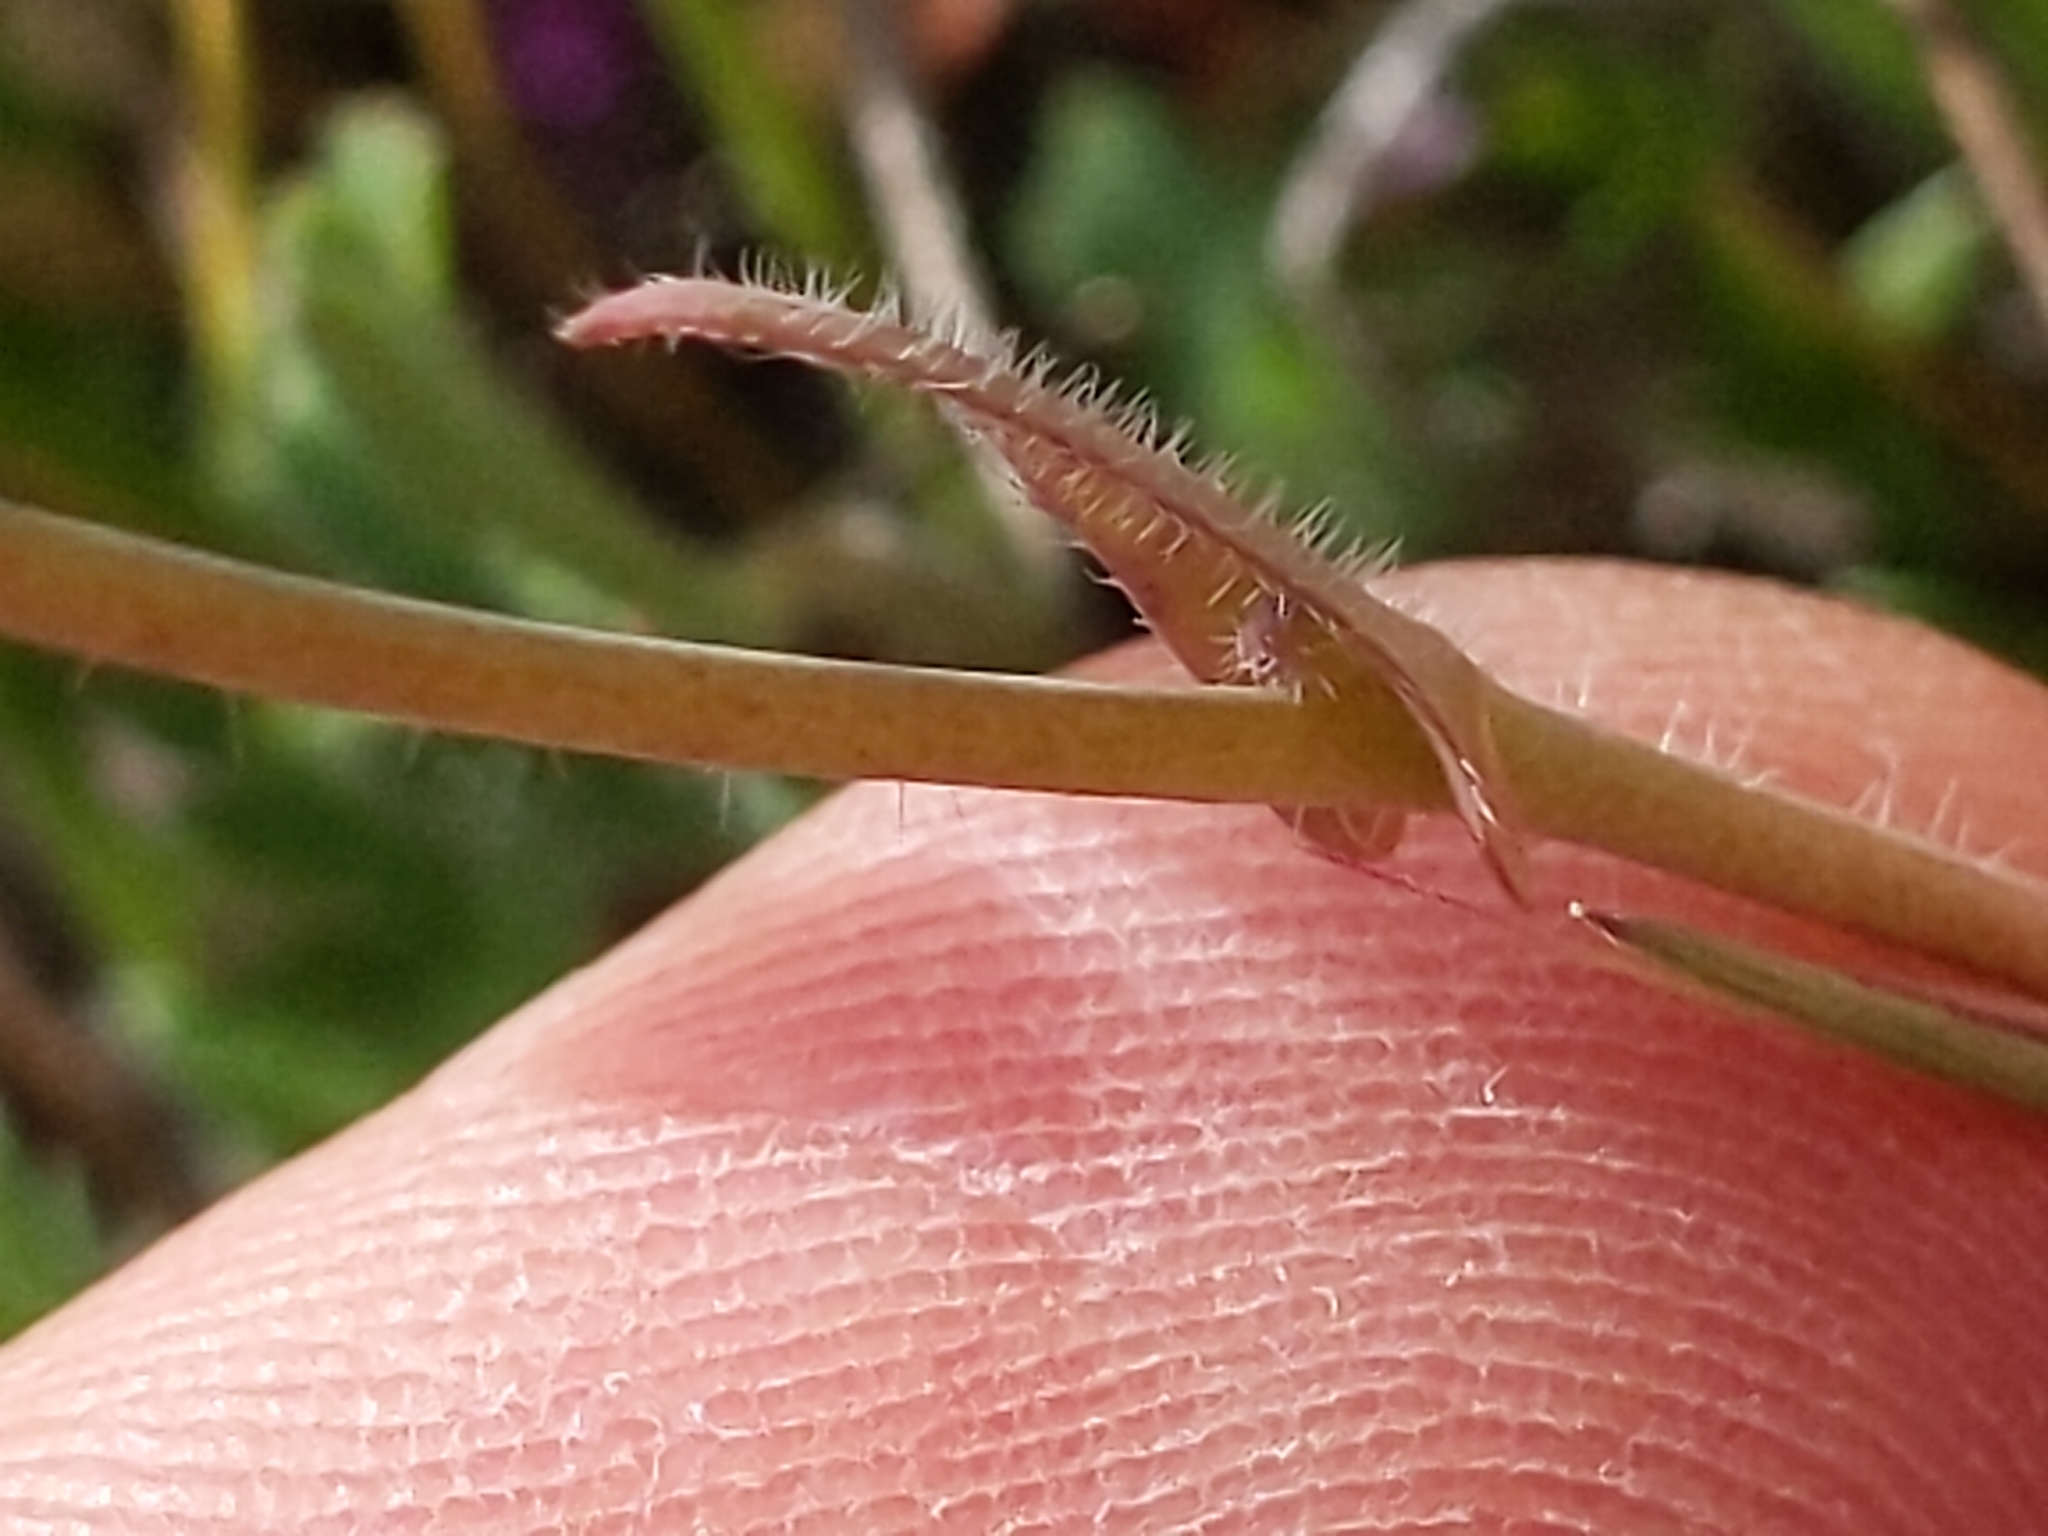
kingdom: Plantae
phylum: Tracheophyta
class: Magnoliopsida
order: Brassicales
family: Brassicaceae
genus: Thysanocarpus
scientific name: Thysanocarpus curvipes
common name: Sand fringepod
